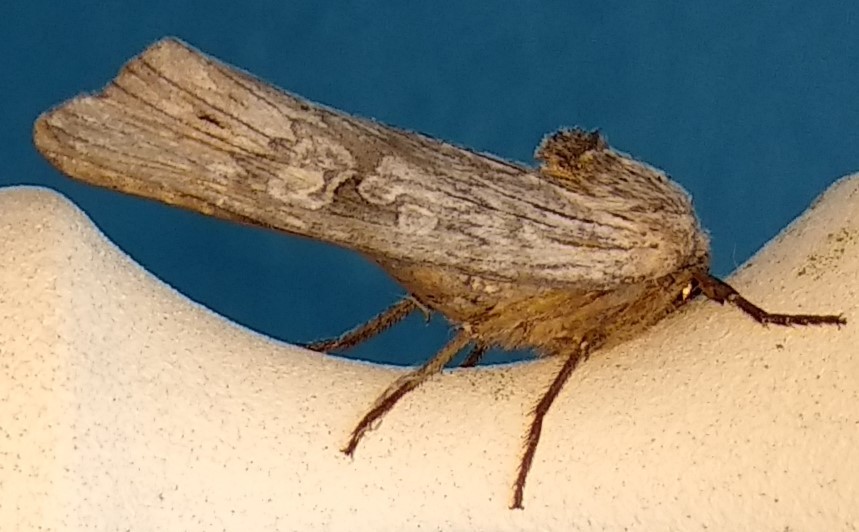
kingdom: Animalia
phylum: Arthropoda
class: Insecta
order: Lepidoptera
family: Noctuidae
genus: Xylena
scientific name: Xylena germana
